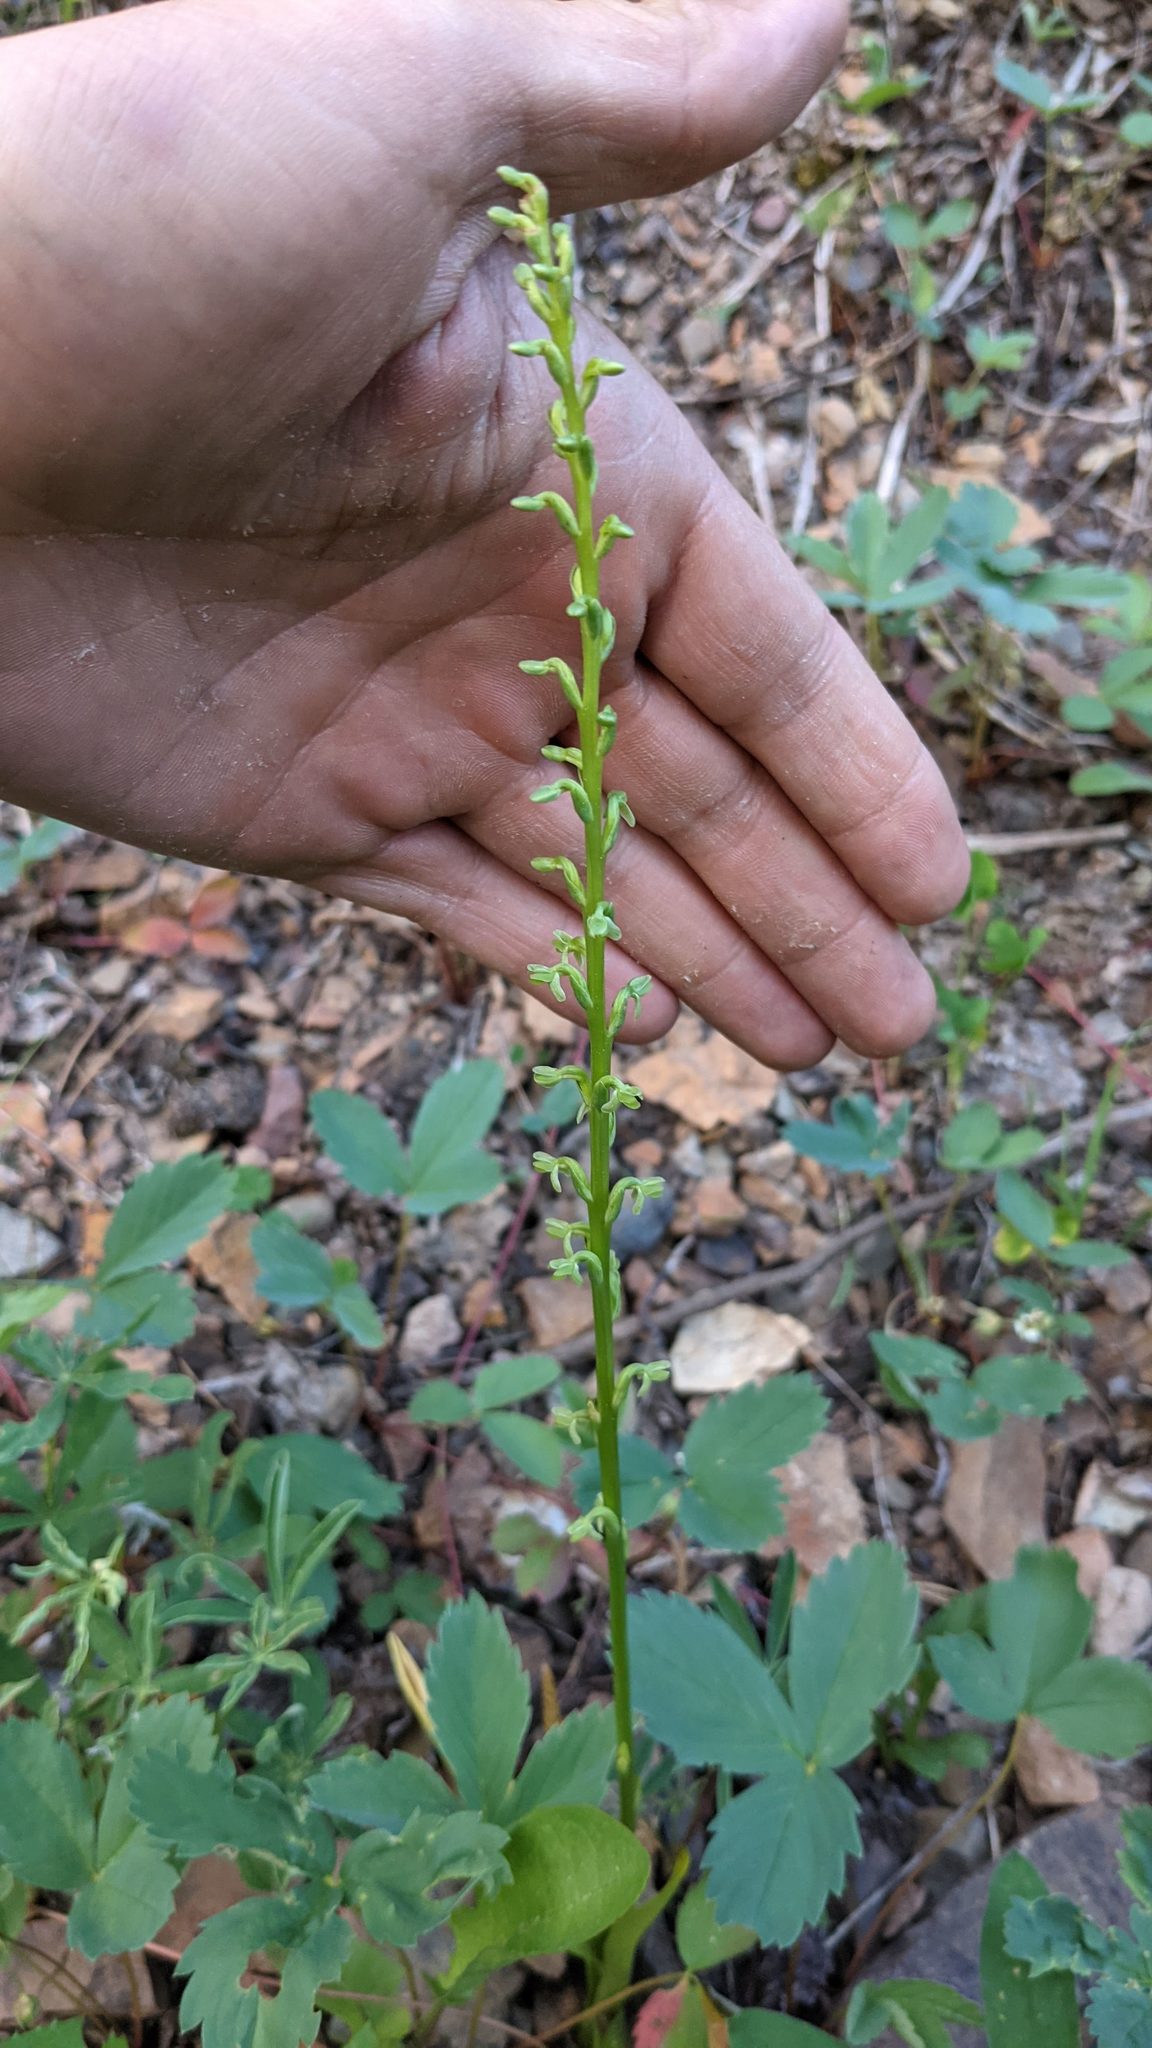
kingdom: Plantae
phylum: Tracheophyta
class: Liliopsida
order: Asparagales
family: Orchidaceae
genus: Platanthera
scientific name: Platanthera unalascensis
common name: Alaska bog orchid
